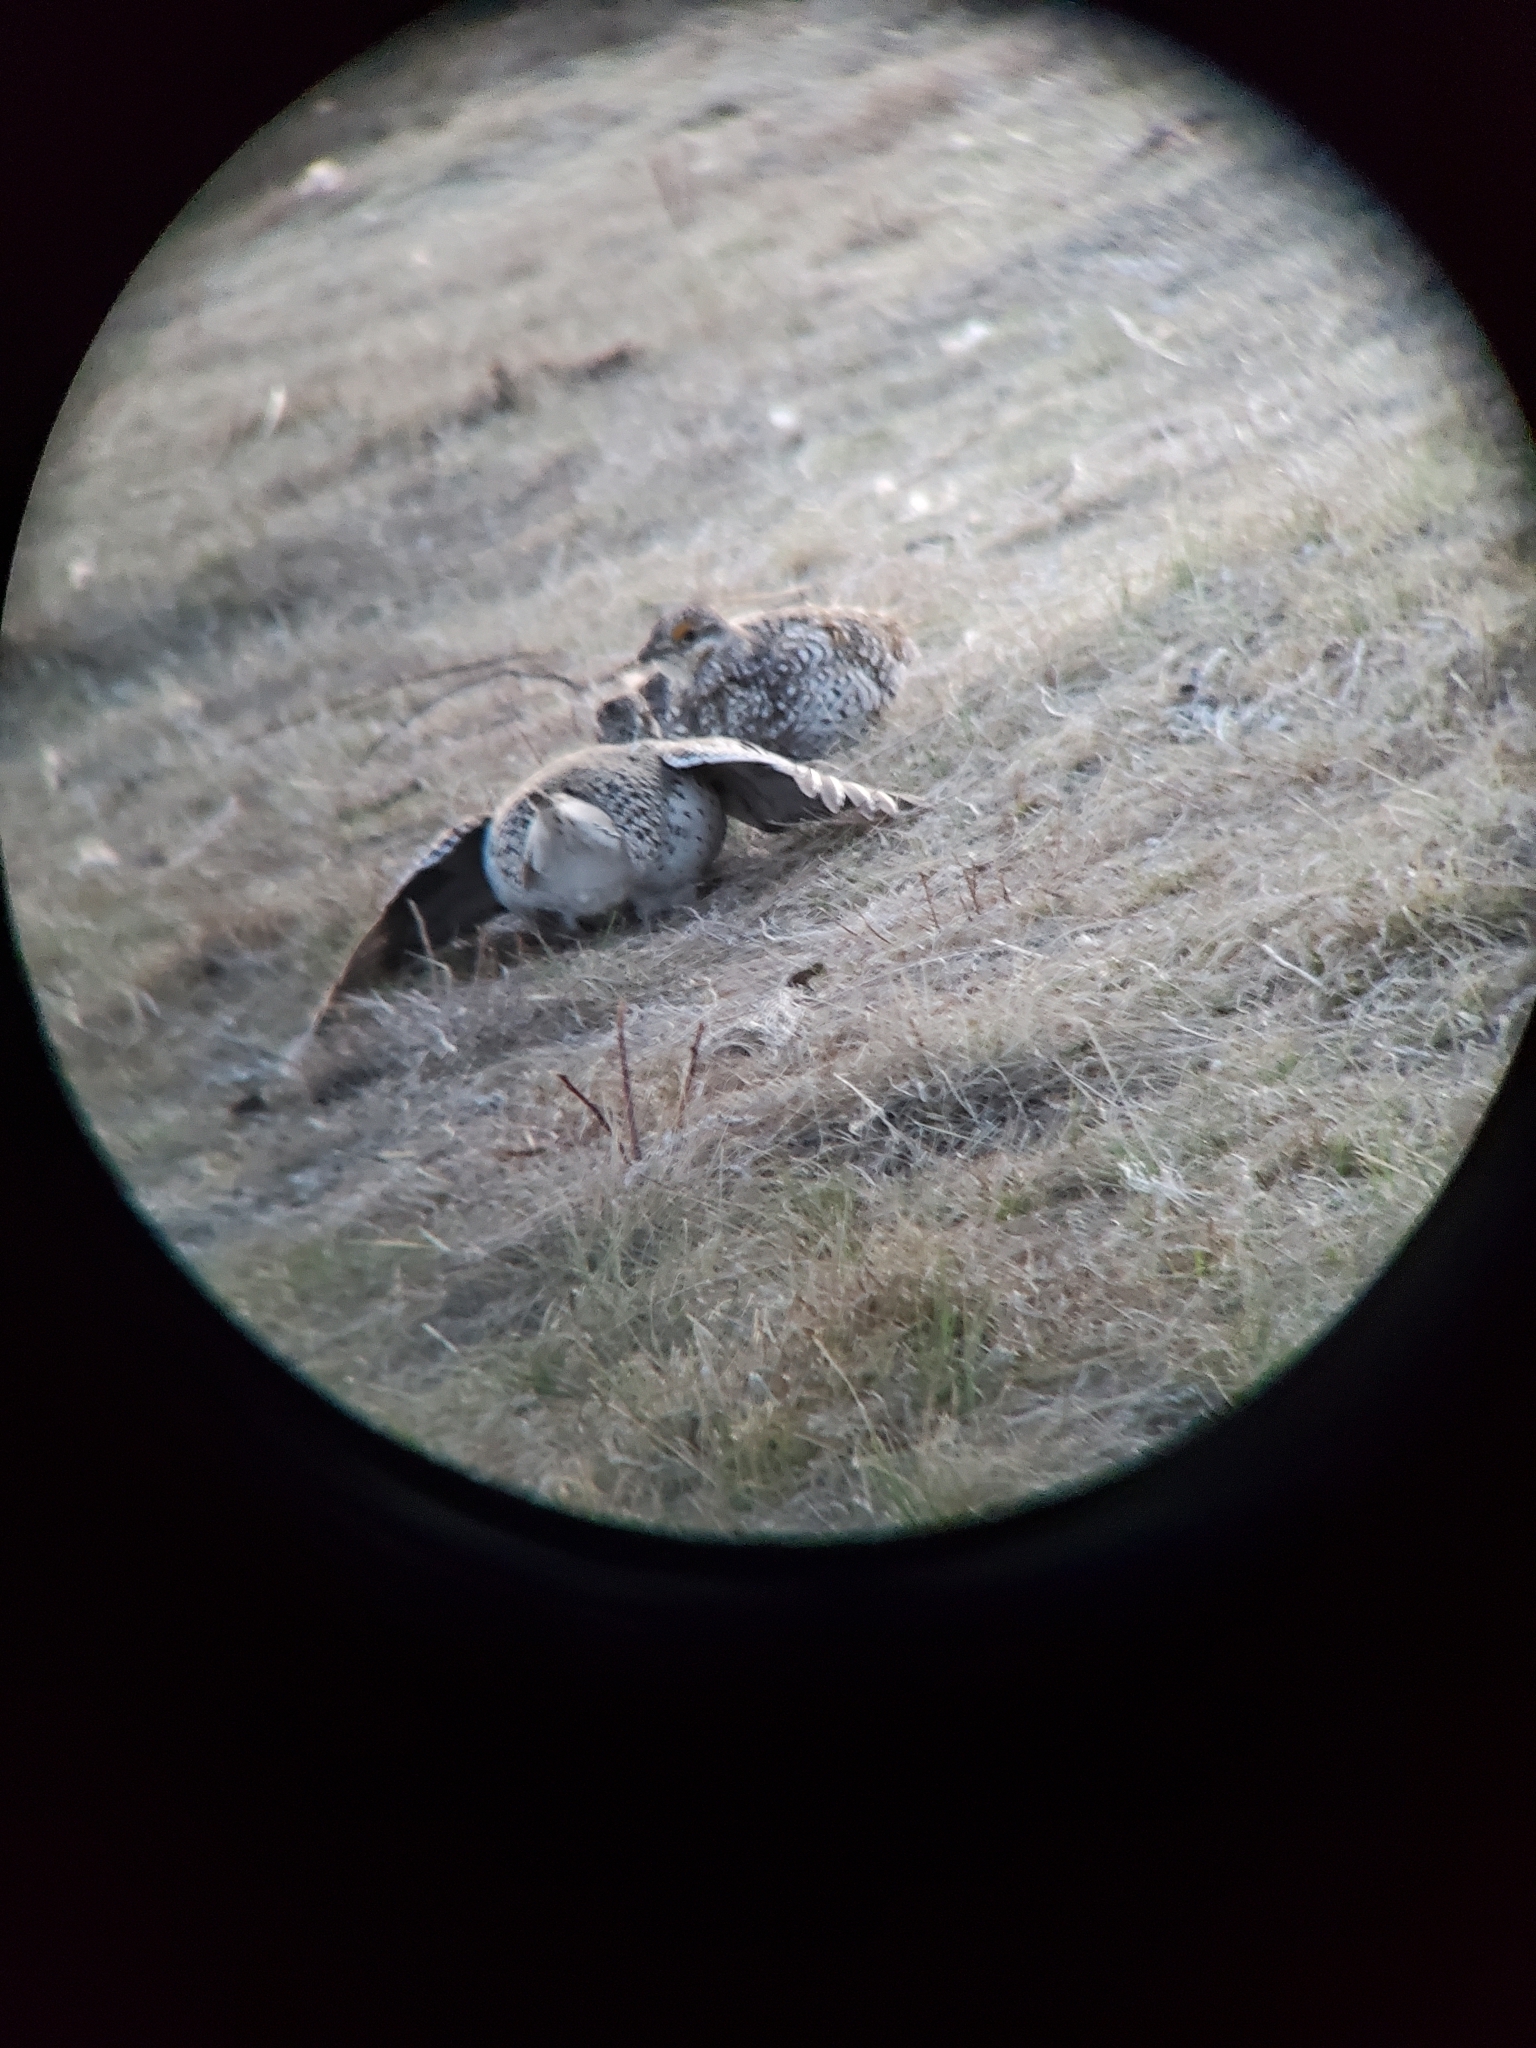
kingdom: Animalia
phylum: Chordata
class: Aves
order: Galliformes
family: Phasianidae
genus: Tympanuchus
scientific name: Tympanuchus phasianellus
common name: Sharp-tailed grouse
